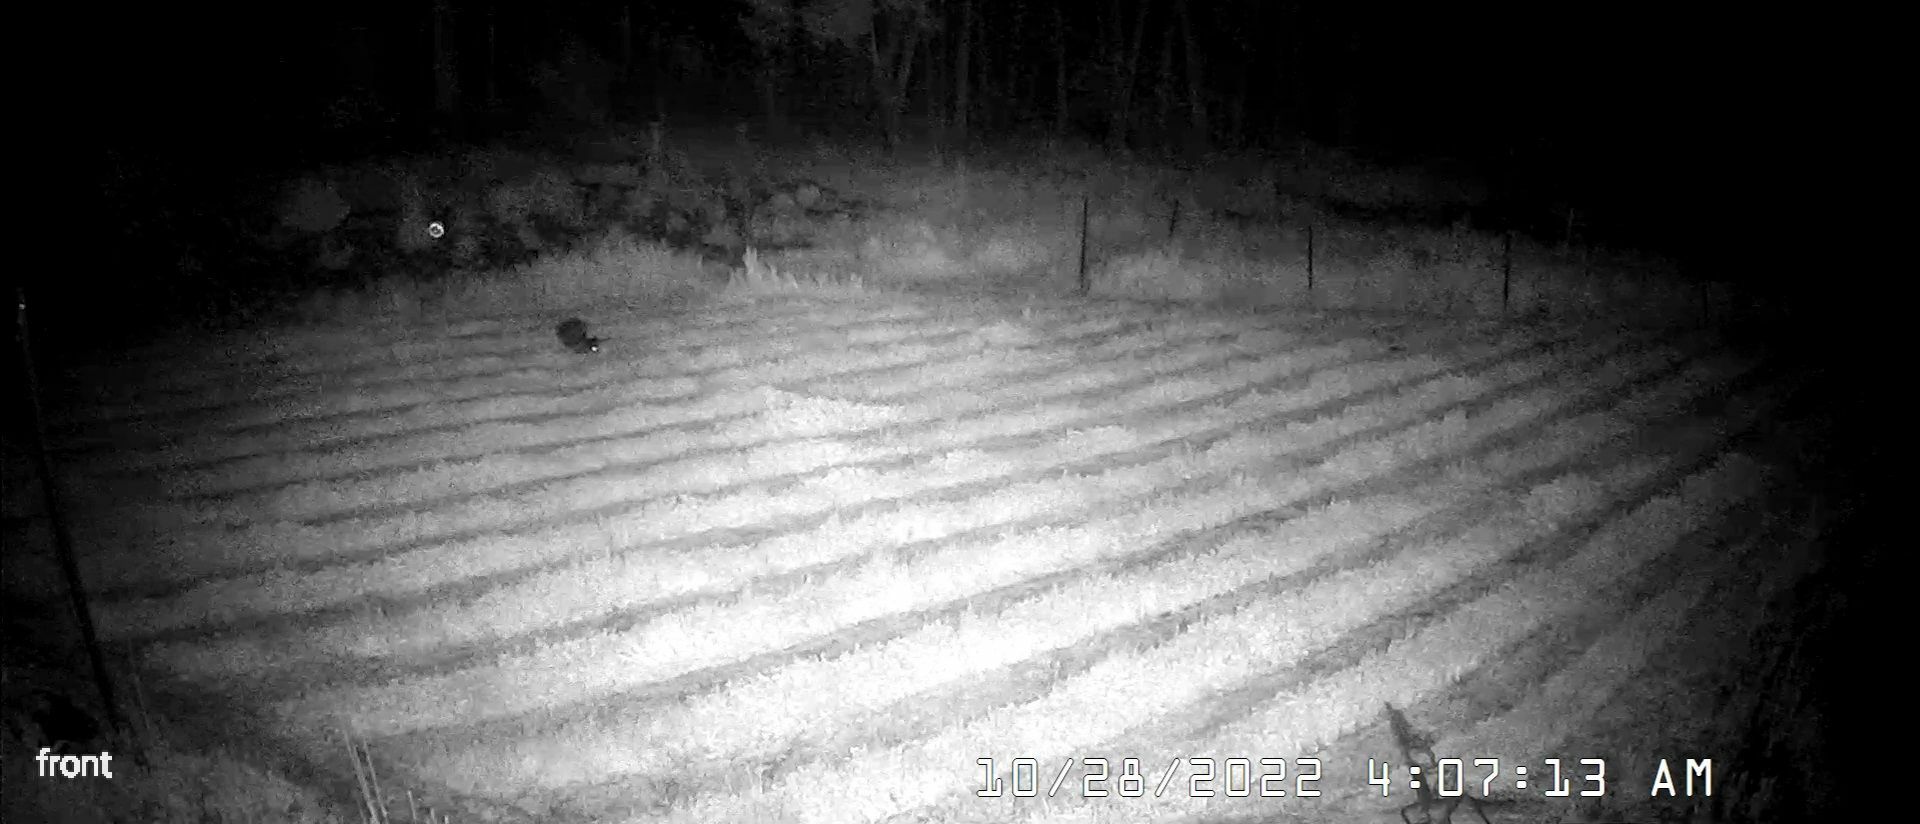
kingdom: Animalia
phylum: Chordata
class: Mammalia
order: Diprotodontia
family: Macropodidae
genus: Wallabia
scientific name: Wallabia bicolor
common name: Swamp wallaby
